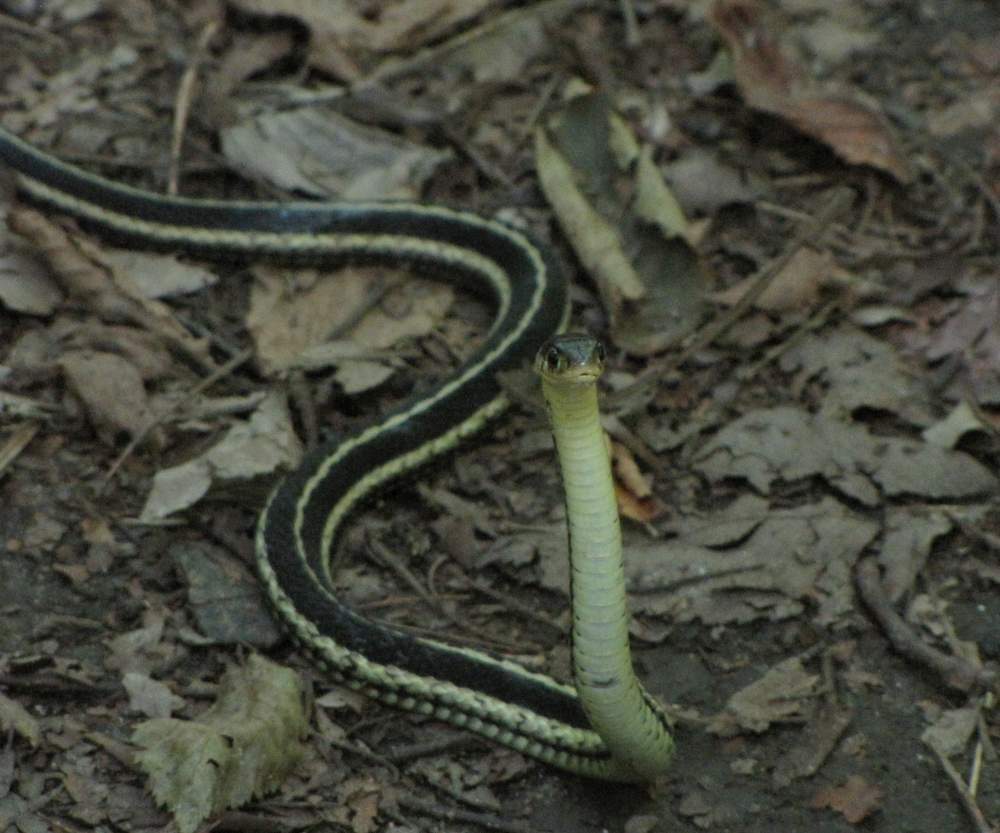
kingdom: Animalia
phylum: Chordata
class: Squamata
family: Colubridae
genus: Thamnophis
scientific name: Thamnophis sirtalis
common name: Common garter snake
